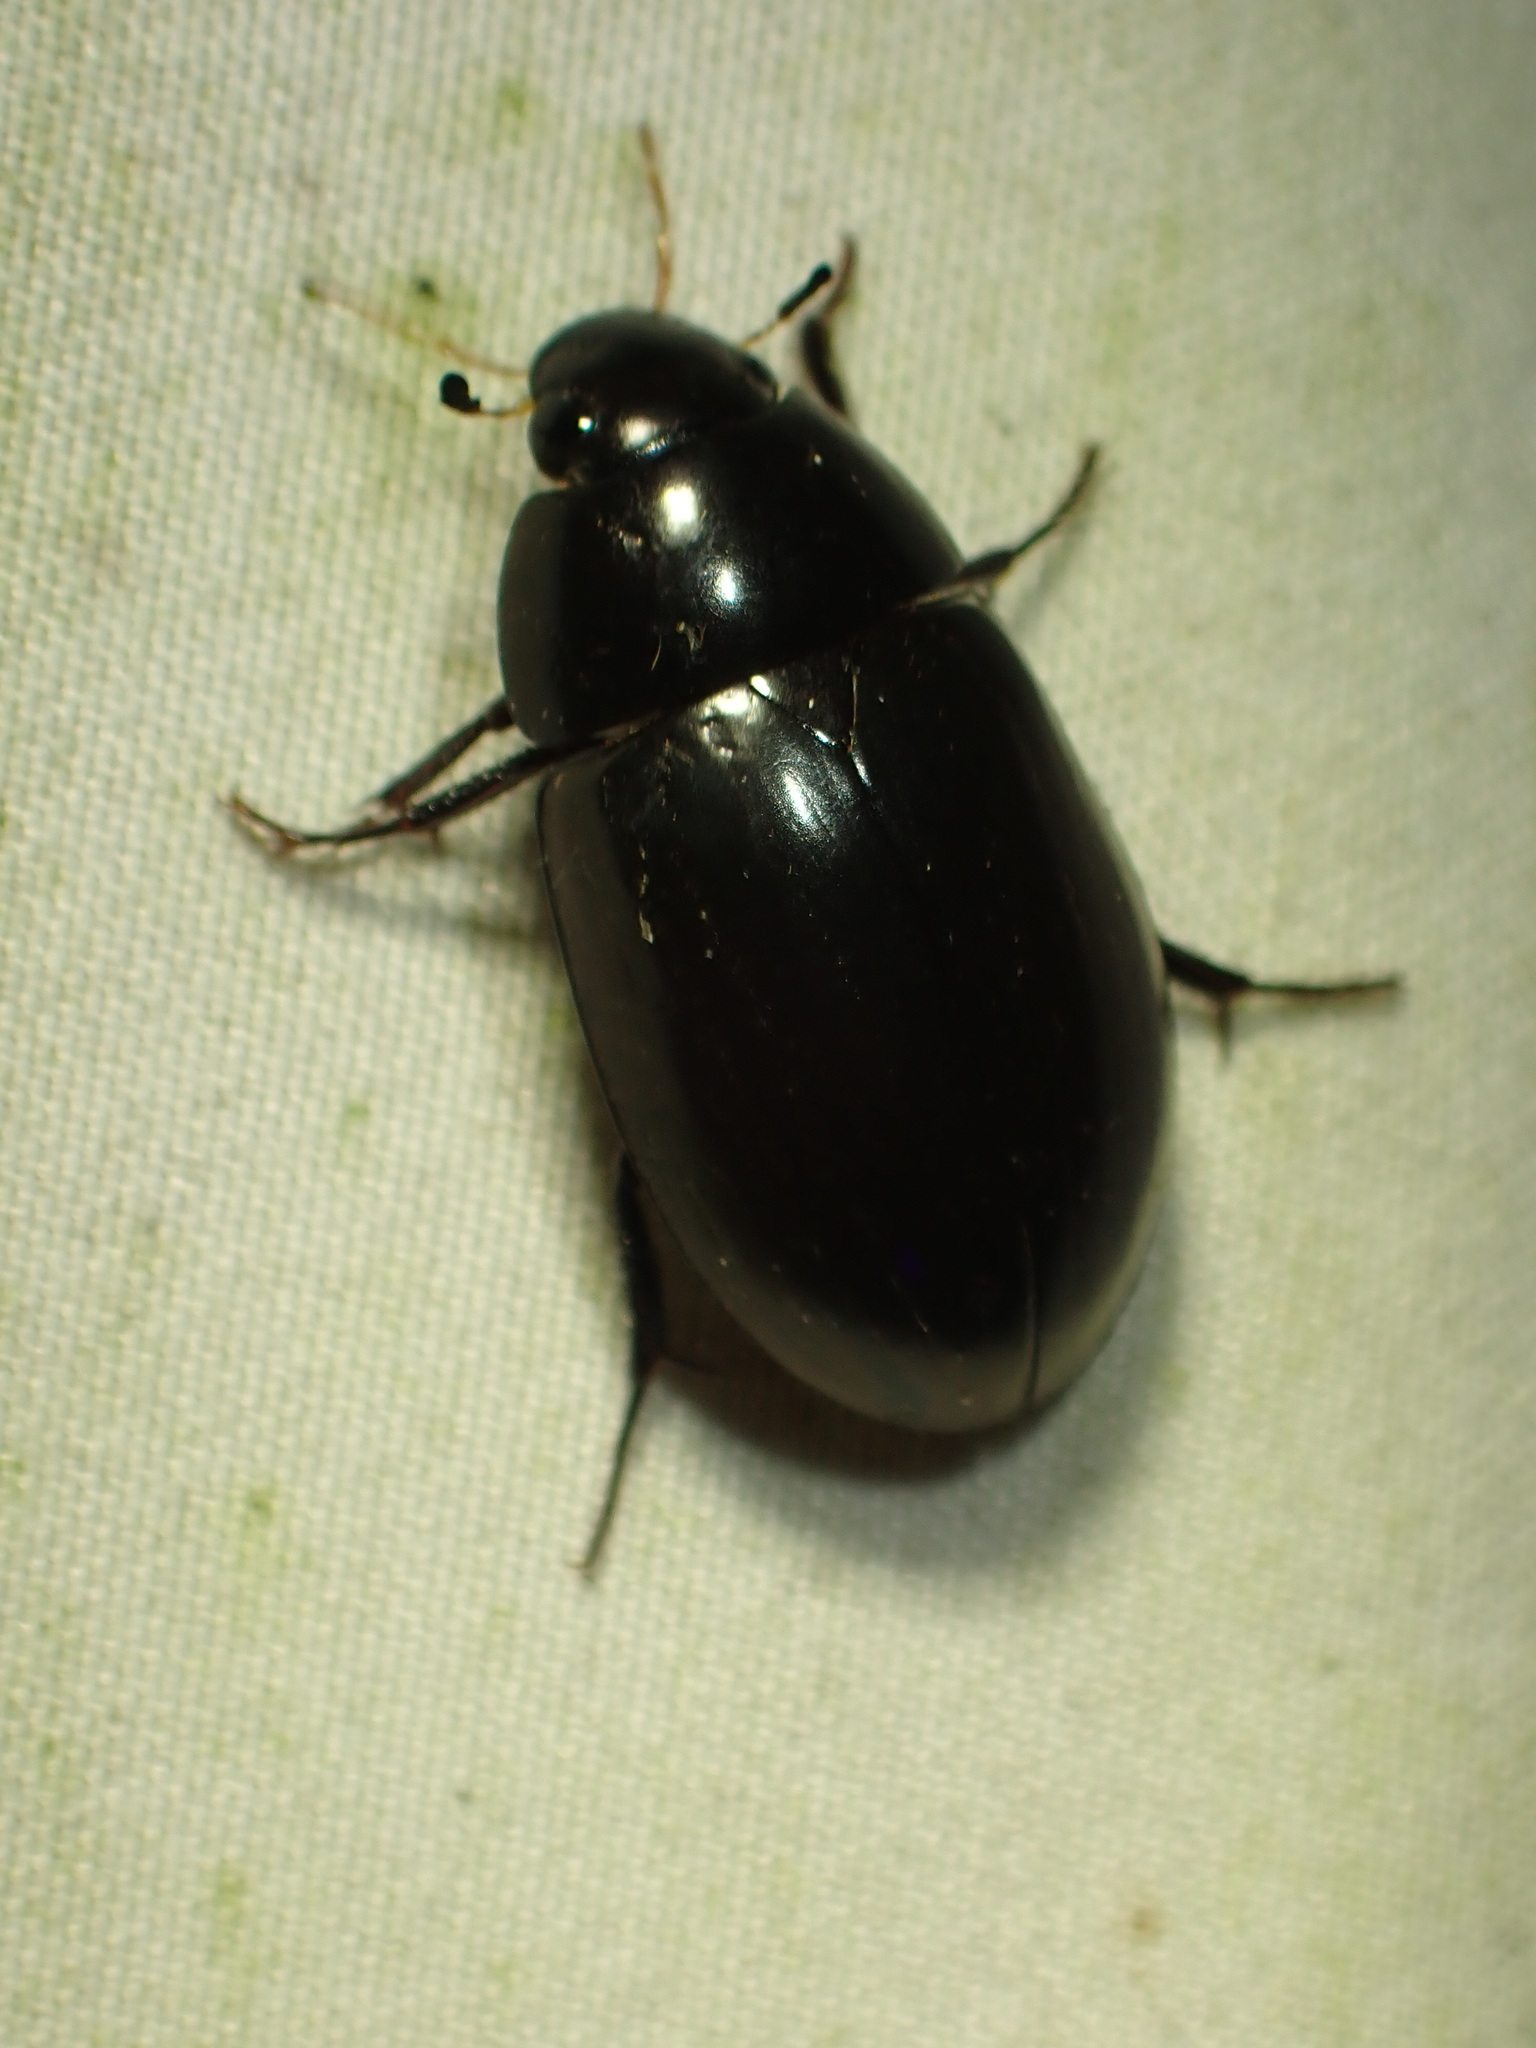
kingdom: Animalia
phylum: Arthropoda
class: Insecta
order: Coleoptera
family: Hydrophilidae
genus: Hydrochara
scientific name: Hydrochara
